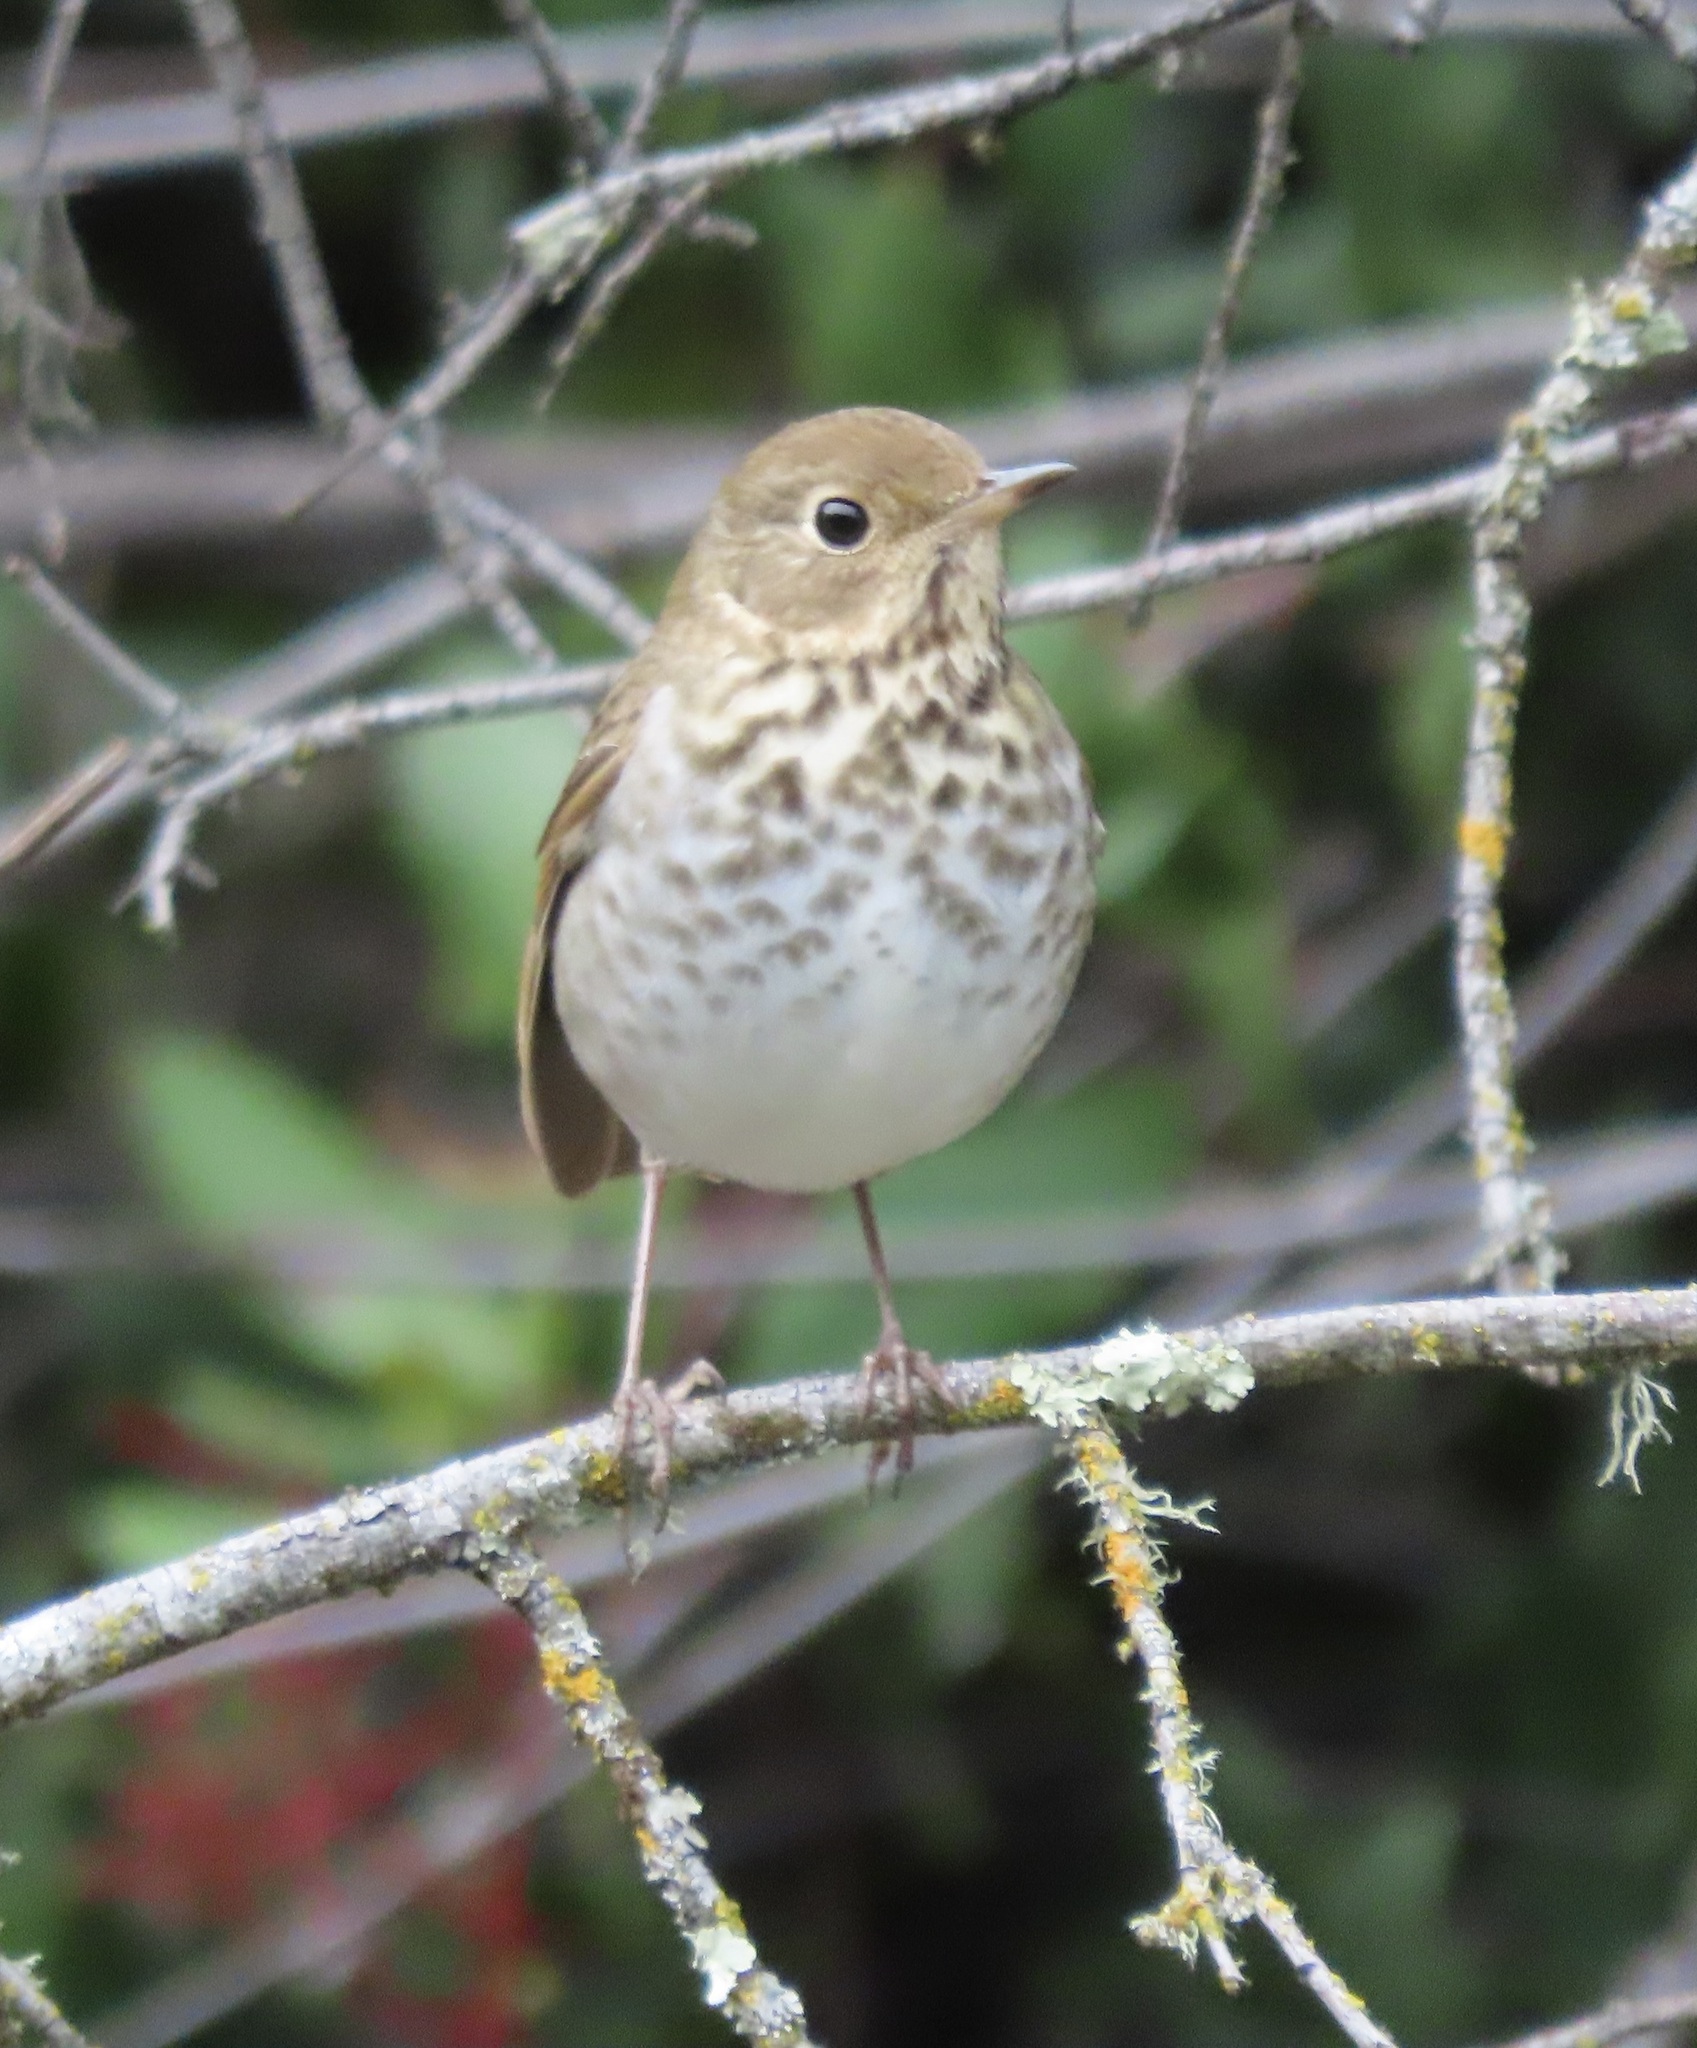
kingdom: Animalia
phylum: Chordata
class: Aves
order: Passeriformes
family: Turdidae
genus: Catharus
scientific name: Catharus guttatus
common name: Hermit thrush
